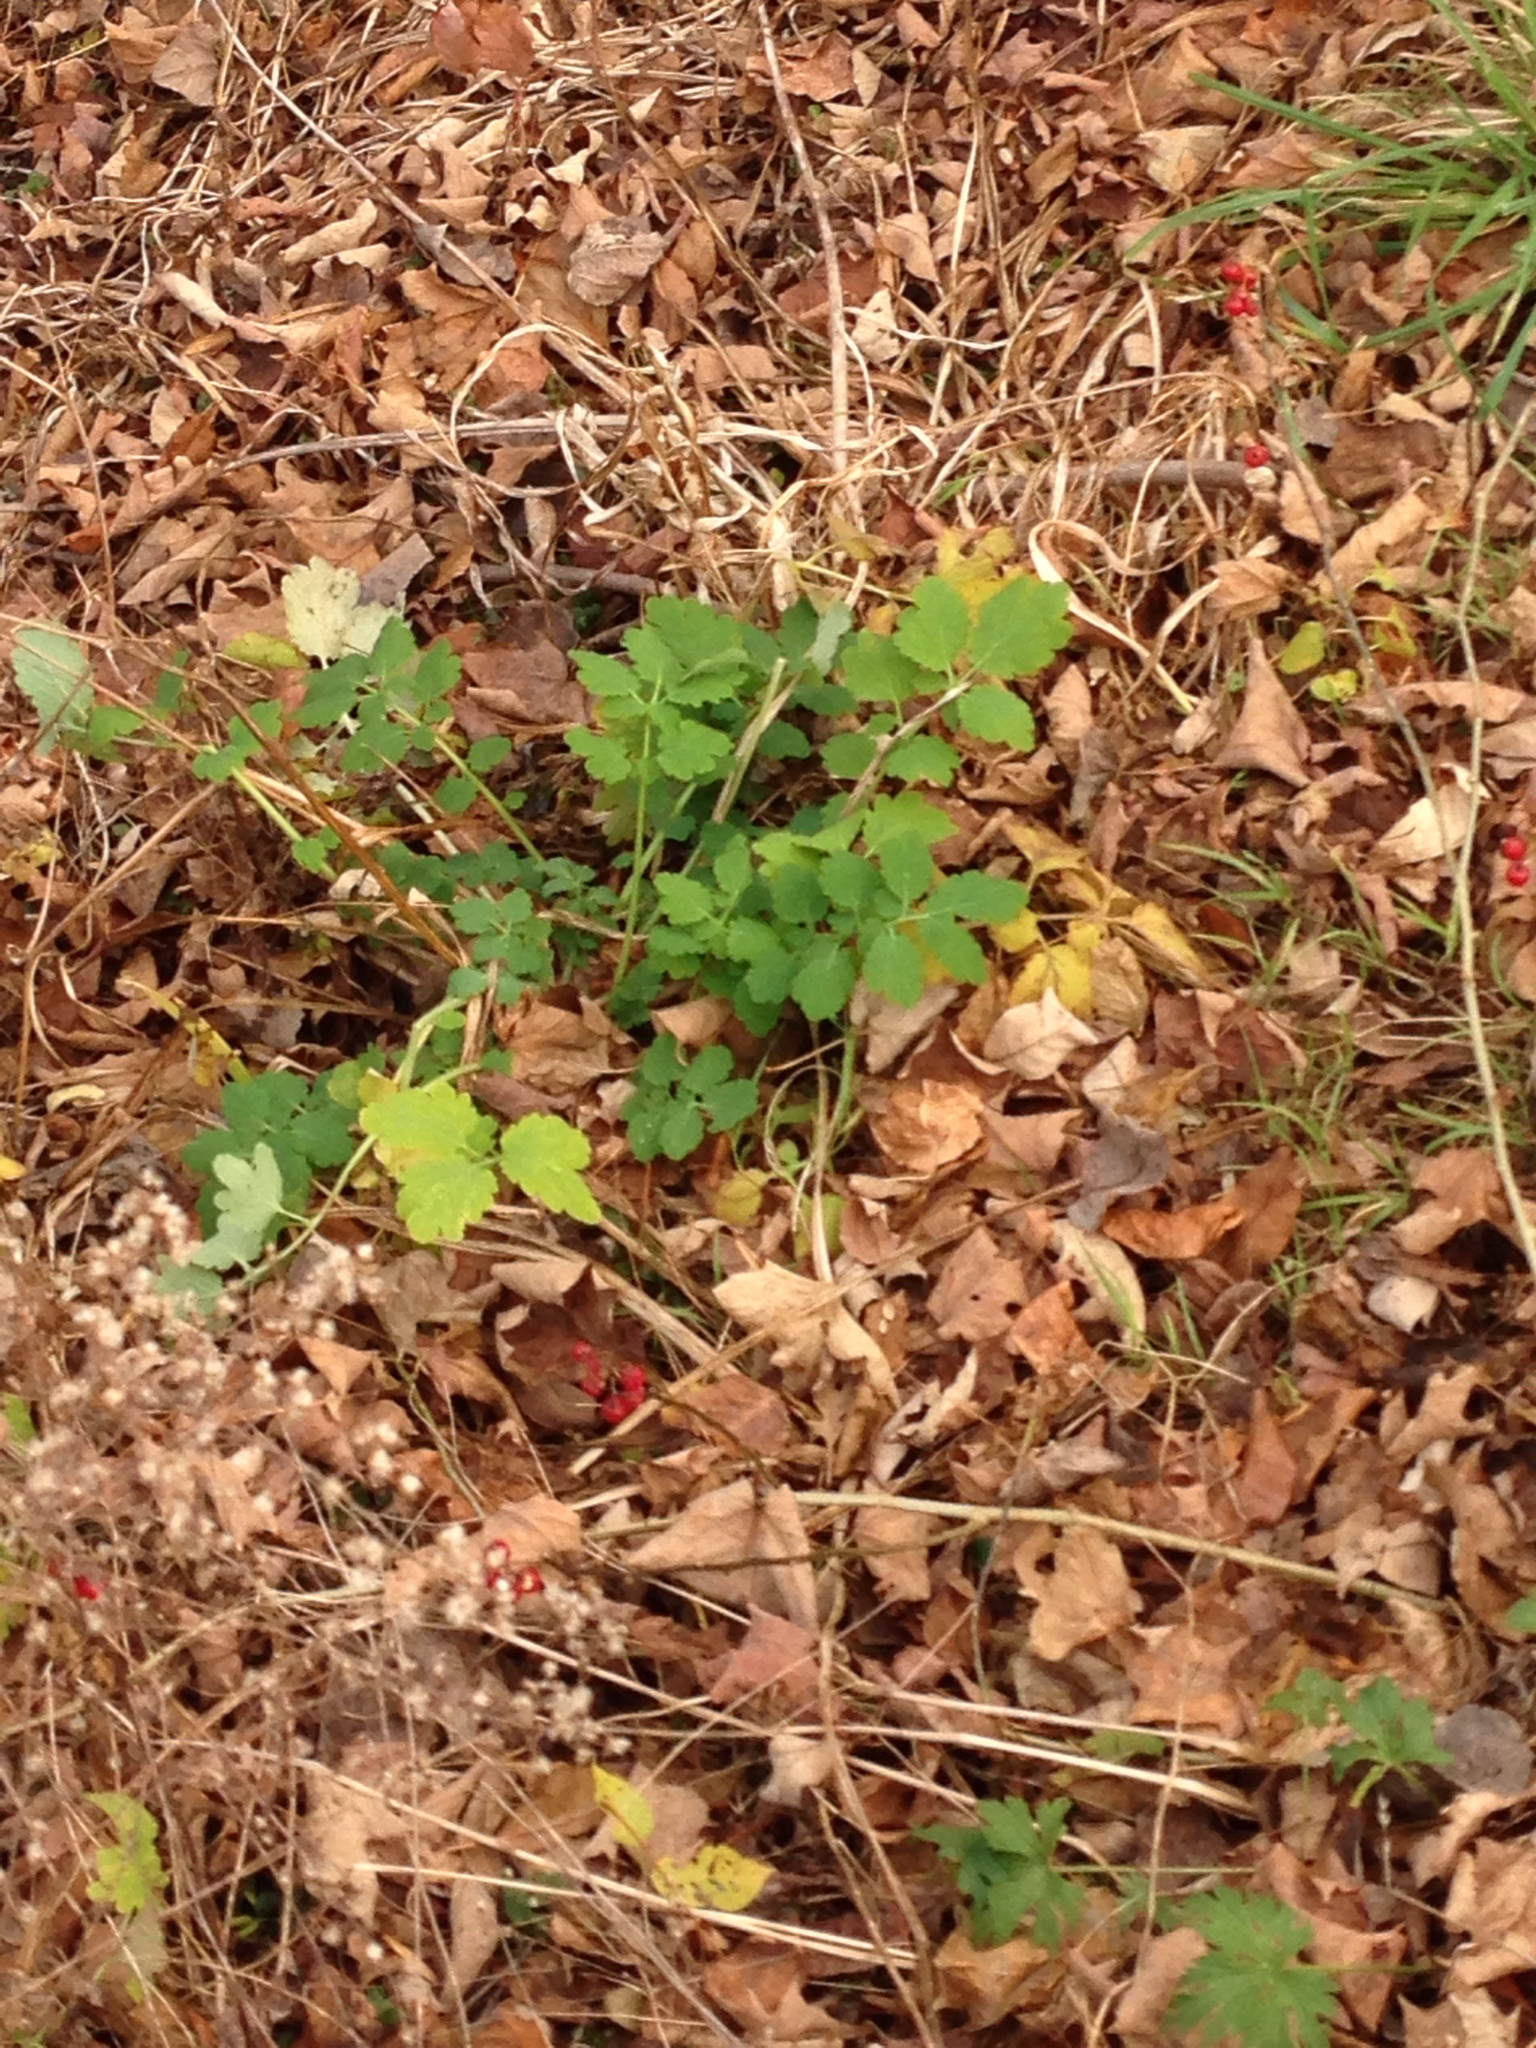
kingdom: Plantae
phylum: Tracheophyta
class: Magnoliopsida
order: Ranunculales
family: Papaveraceae
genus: Chelidonium
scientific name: Chelidonium majus
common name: Greater celandine
